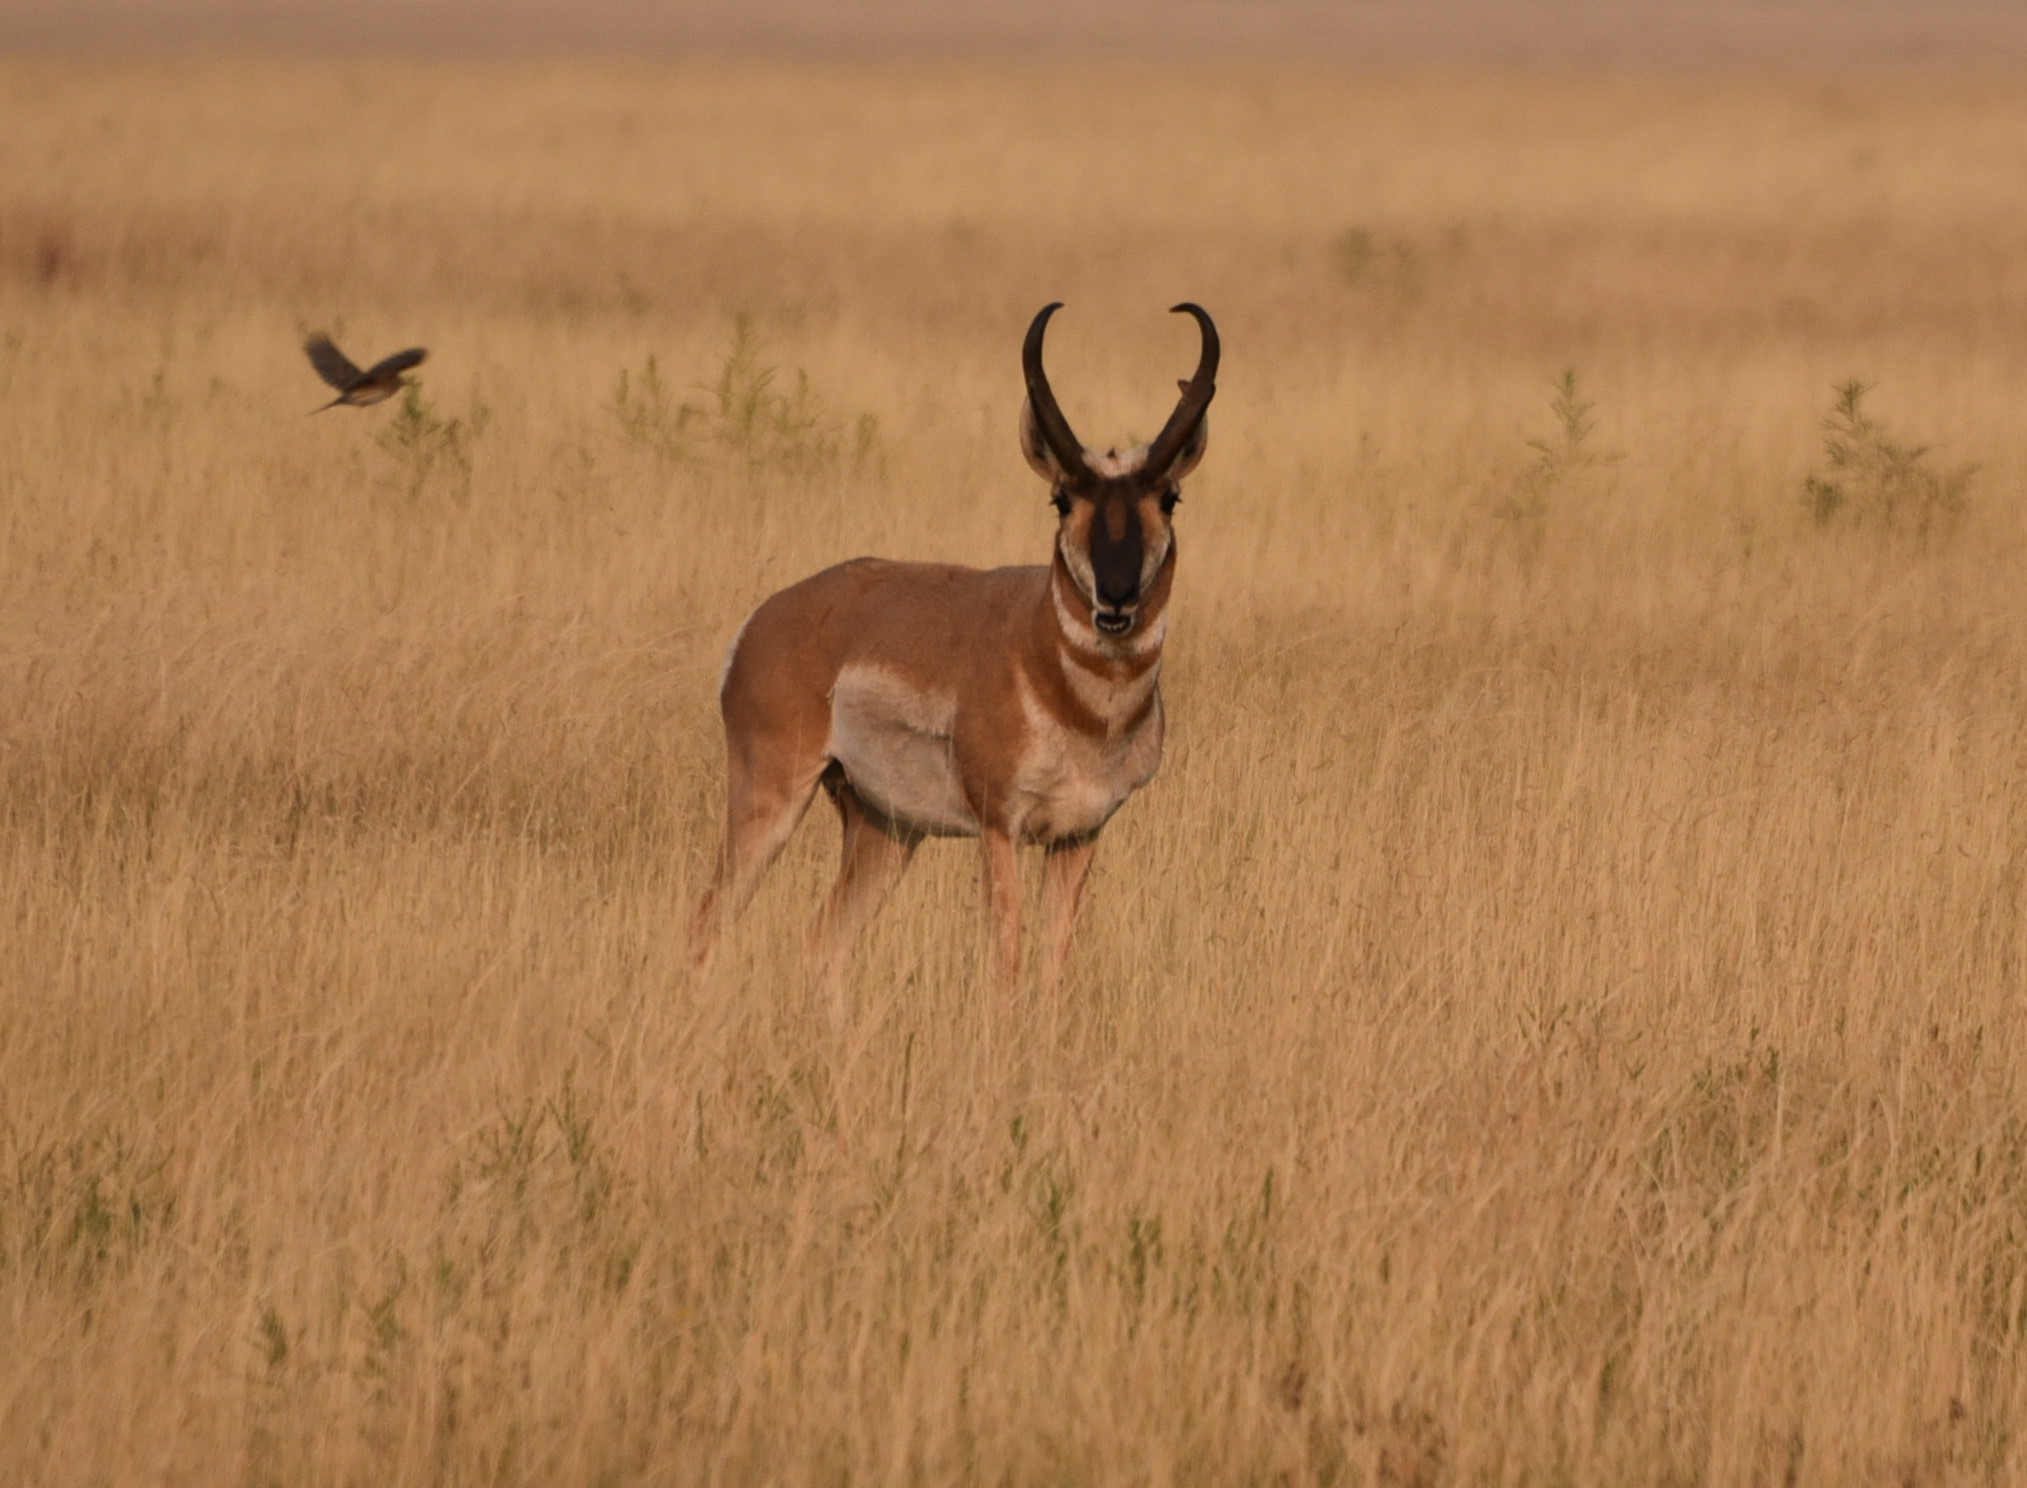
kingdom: Animalia
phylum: Chordata
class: Mammalia
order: Artiodactyla
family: Antilocapridae
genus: Antilocapra
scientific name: Antilocapra americana
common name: Pronghorn
